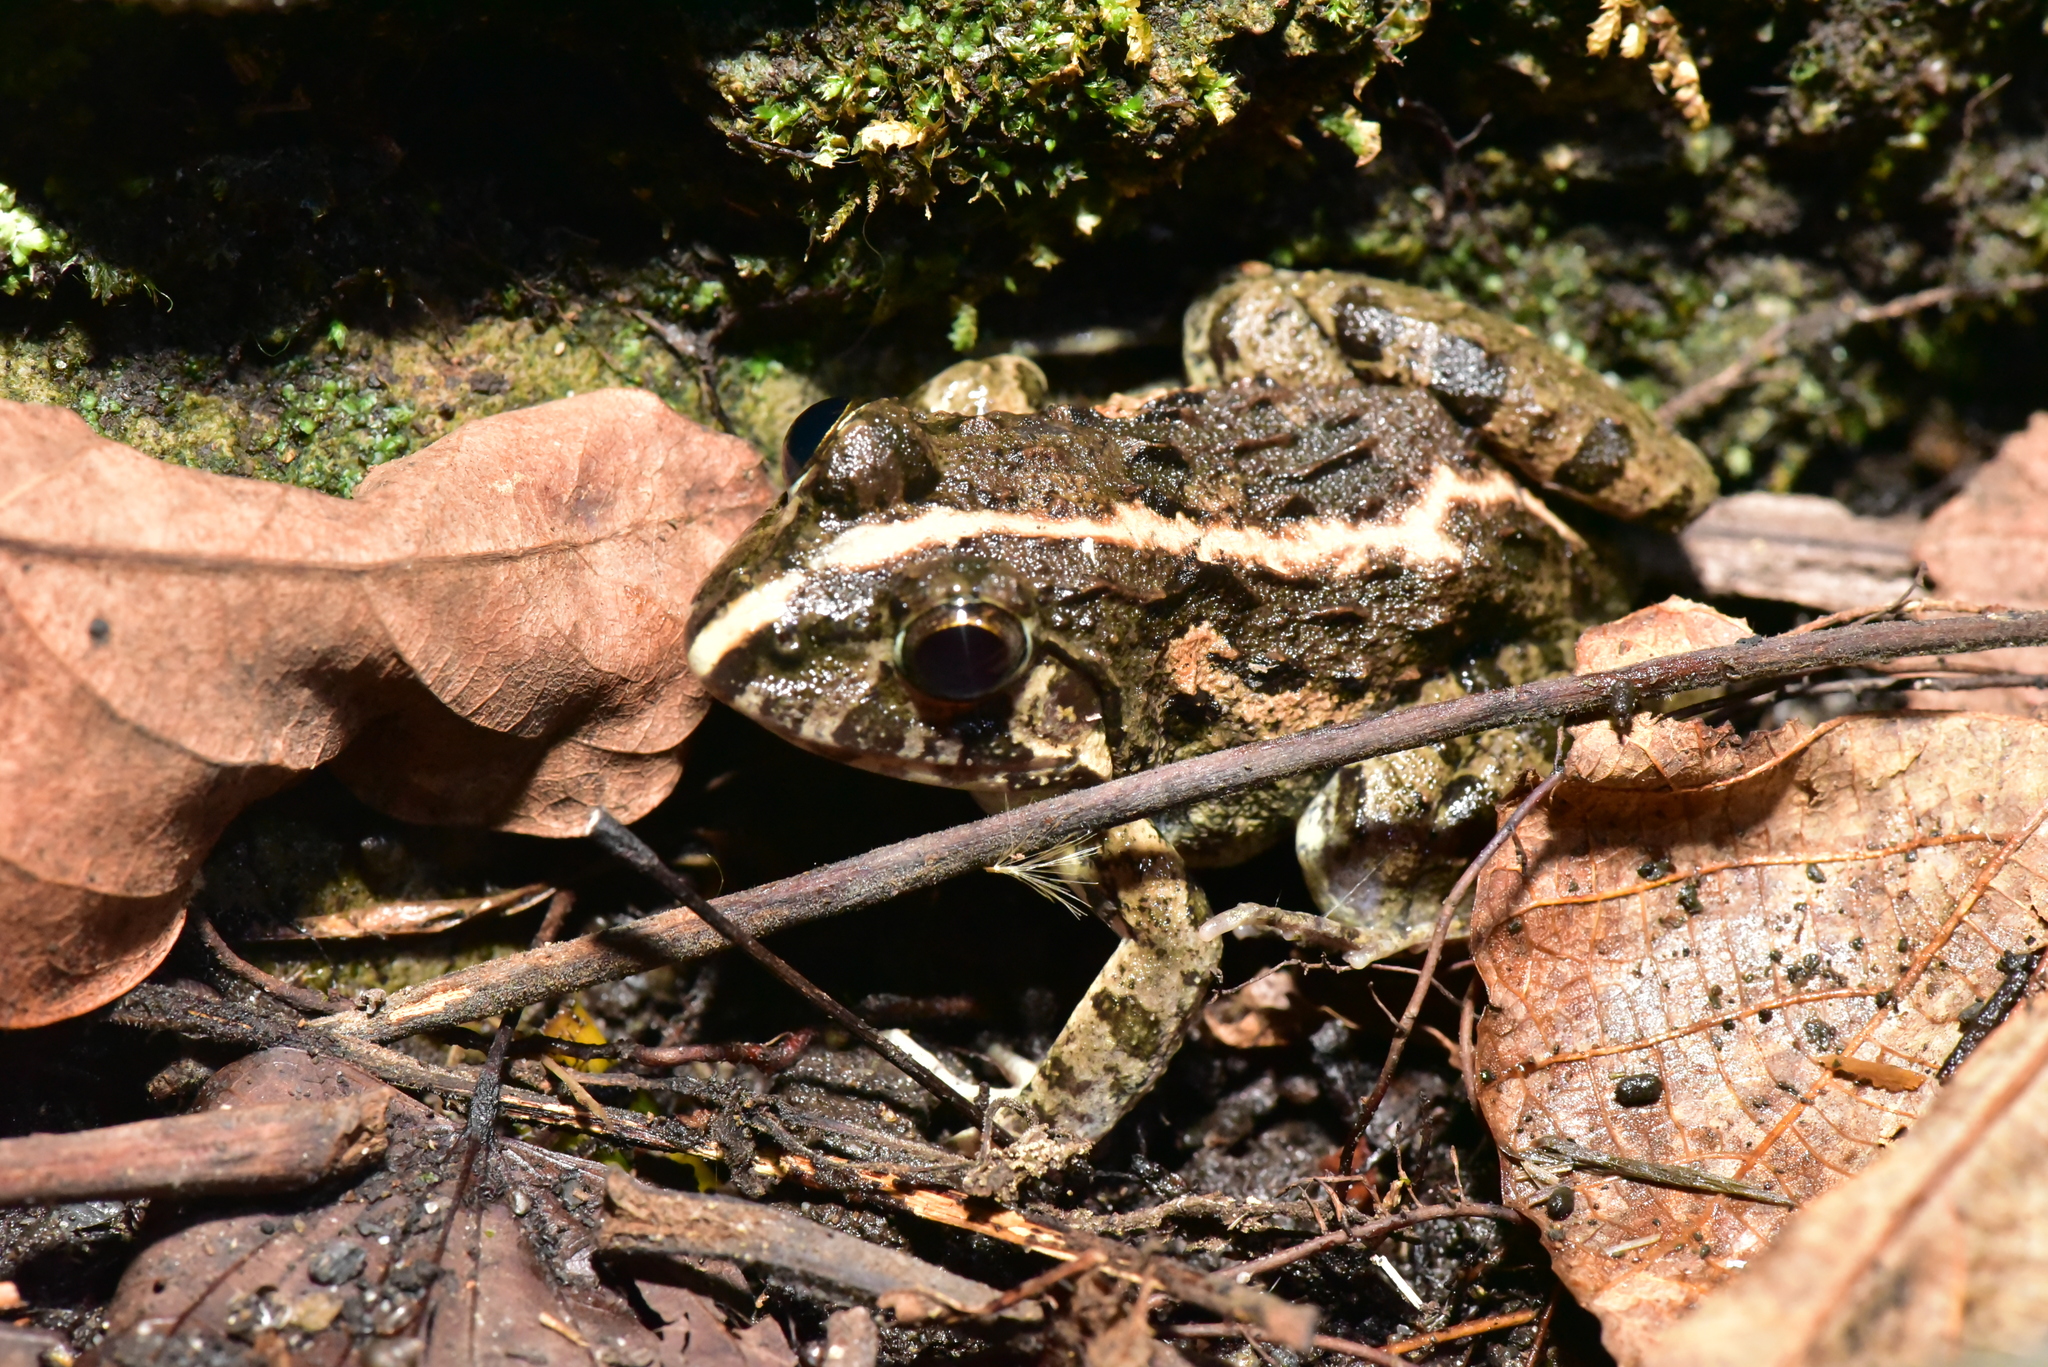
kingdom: Animalia
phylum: Chordata
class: Amphibia
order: Anura
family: Dicroglossidae
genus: Fejervarya
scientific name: Fejervarya limnocharis
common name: Asian grass frog/common pond frog/field frog/grass frog/indian rice frog
